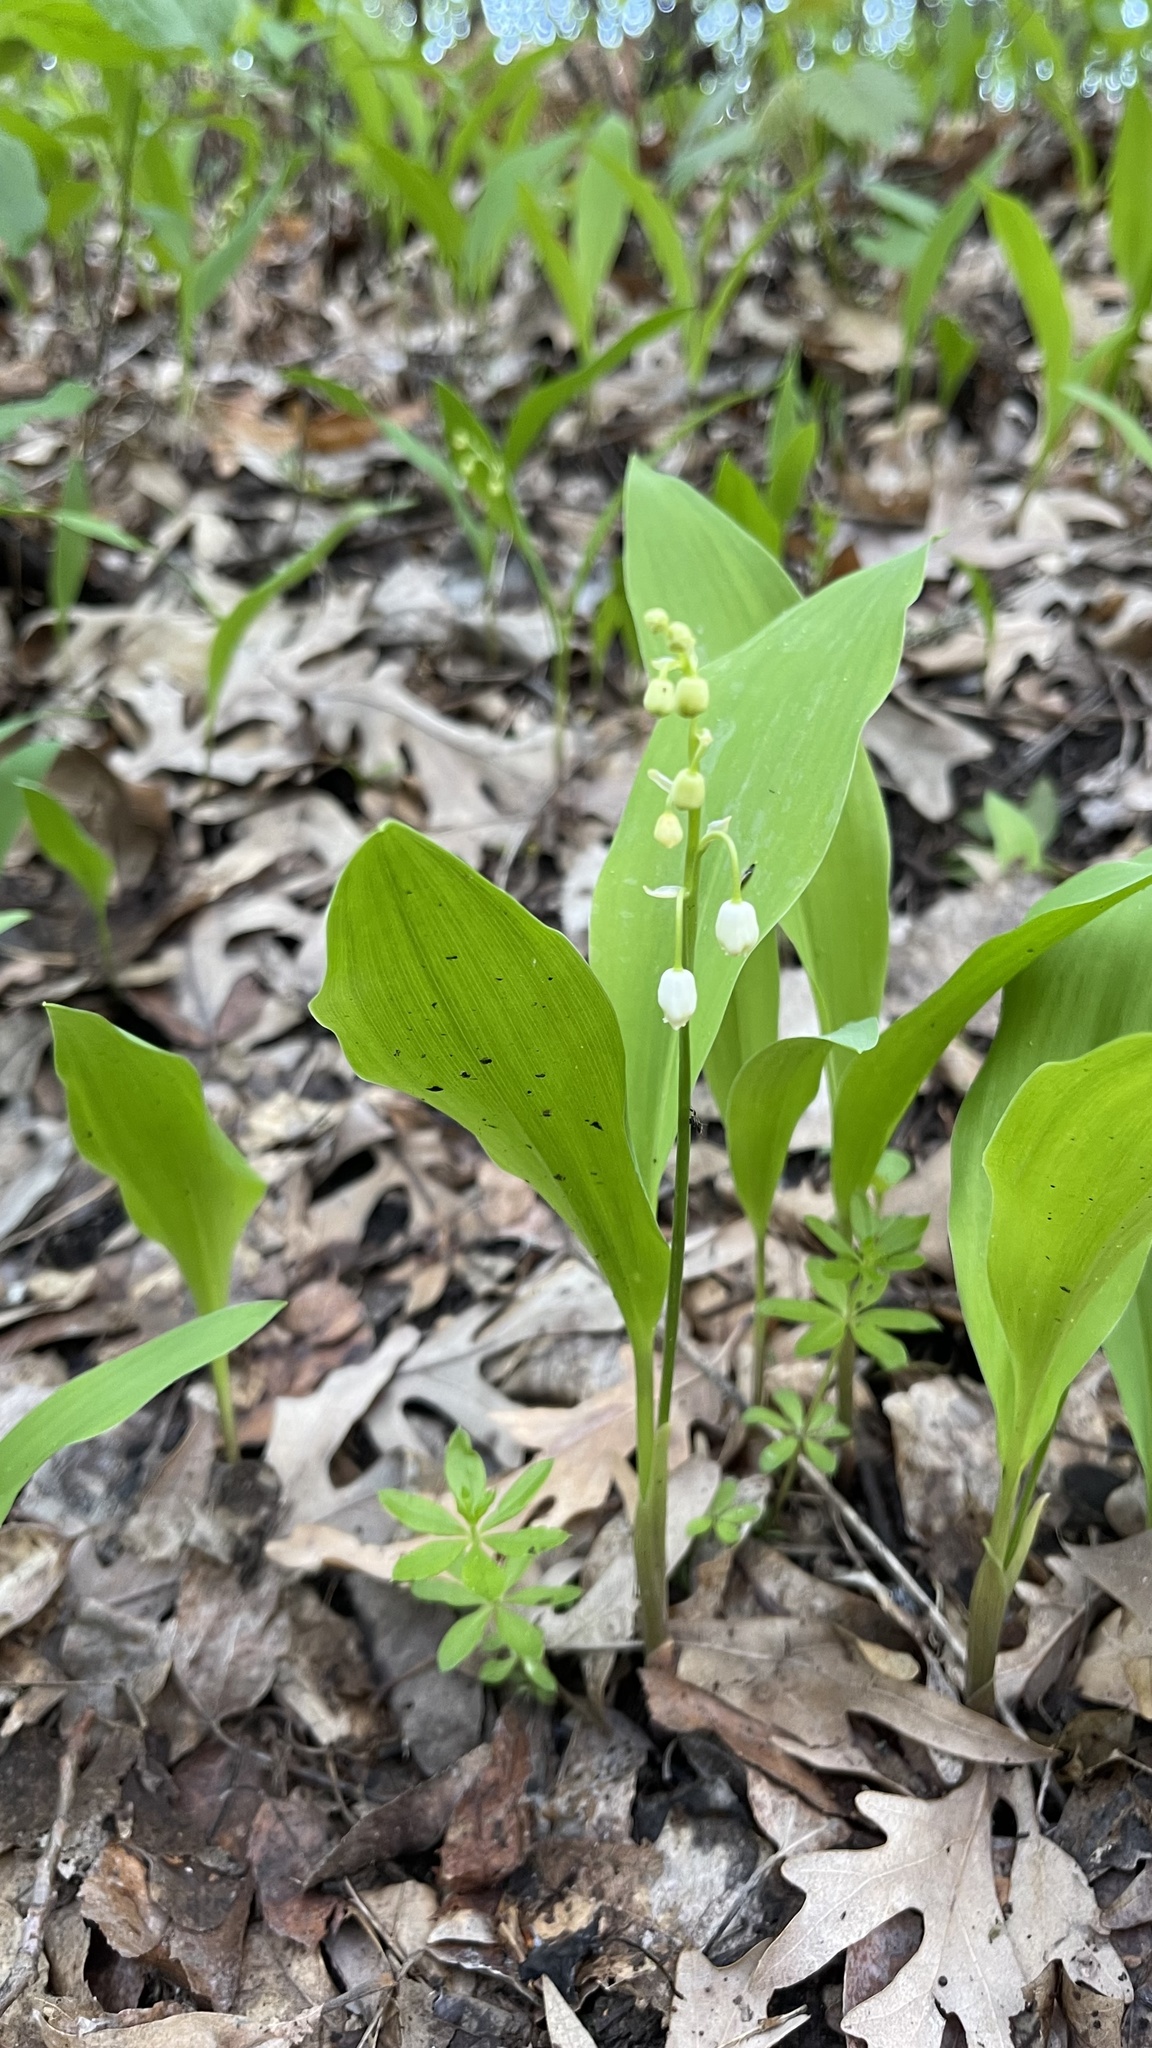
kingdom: Plantae
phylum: Tracheophyta
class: Liliopsida
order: Asparagales
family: Asparagaceae
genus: Convallaria
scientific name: Convallaria majalis
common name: Lily-of-the-valley
